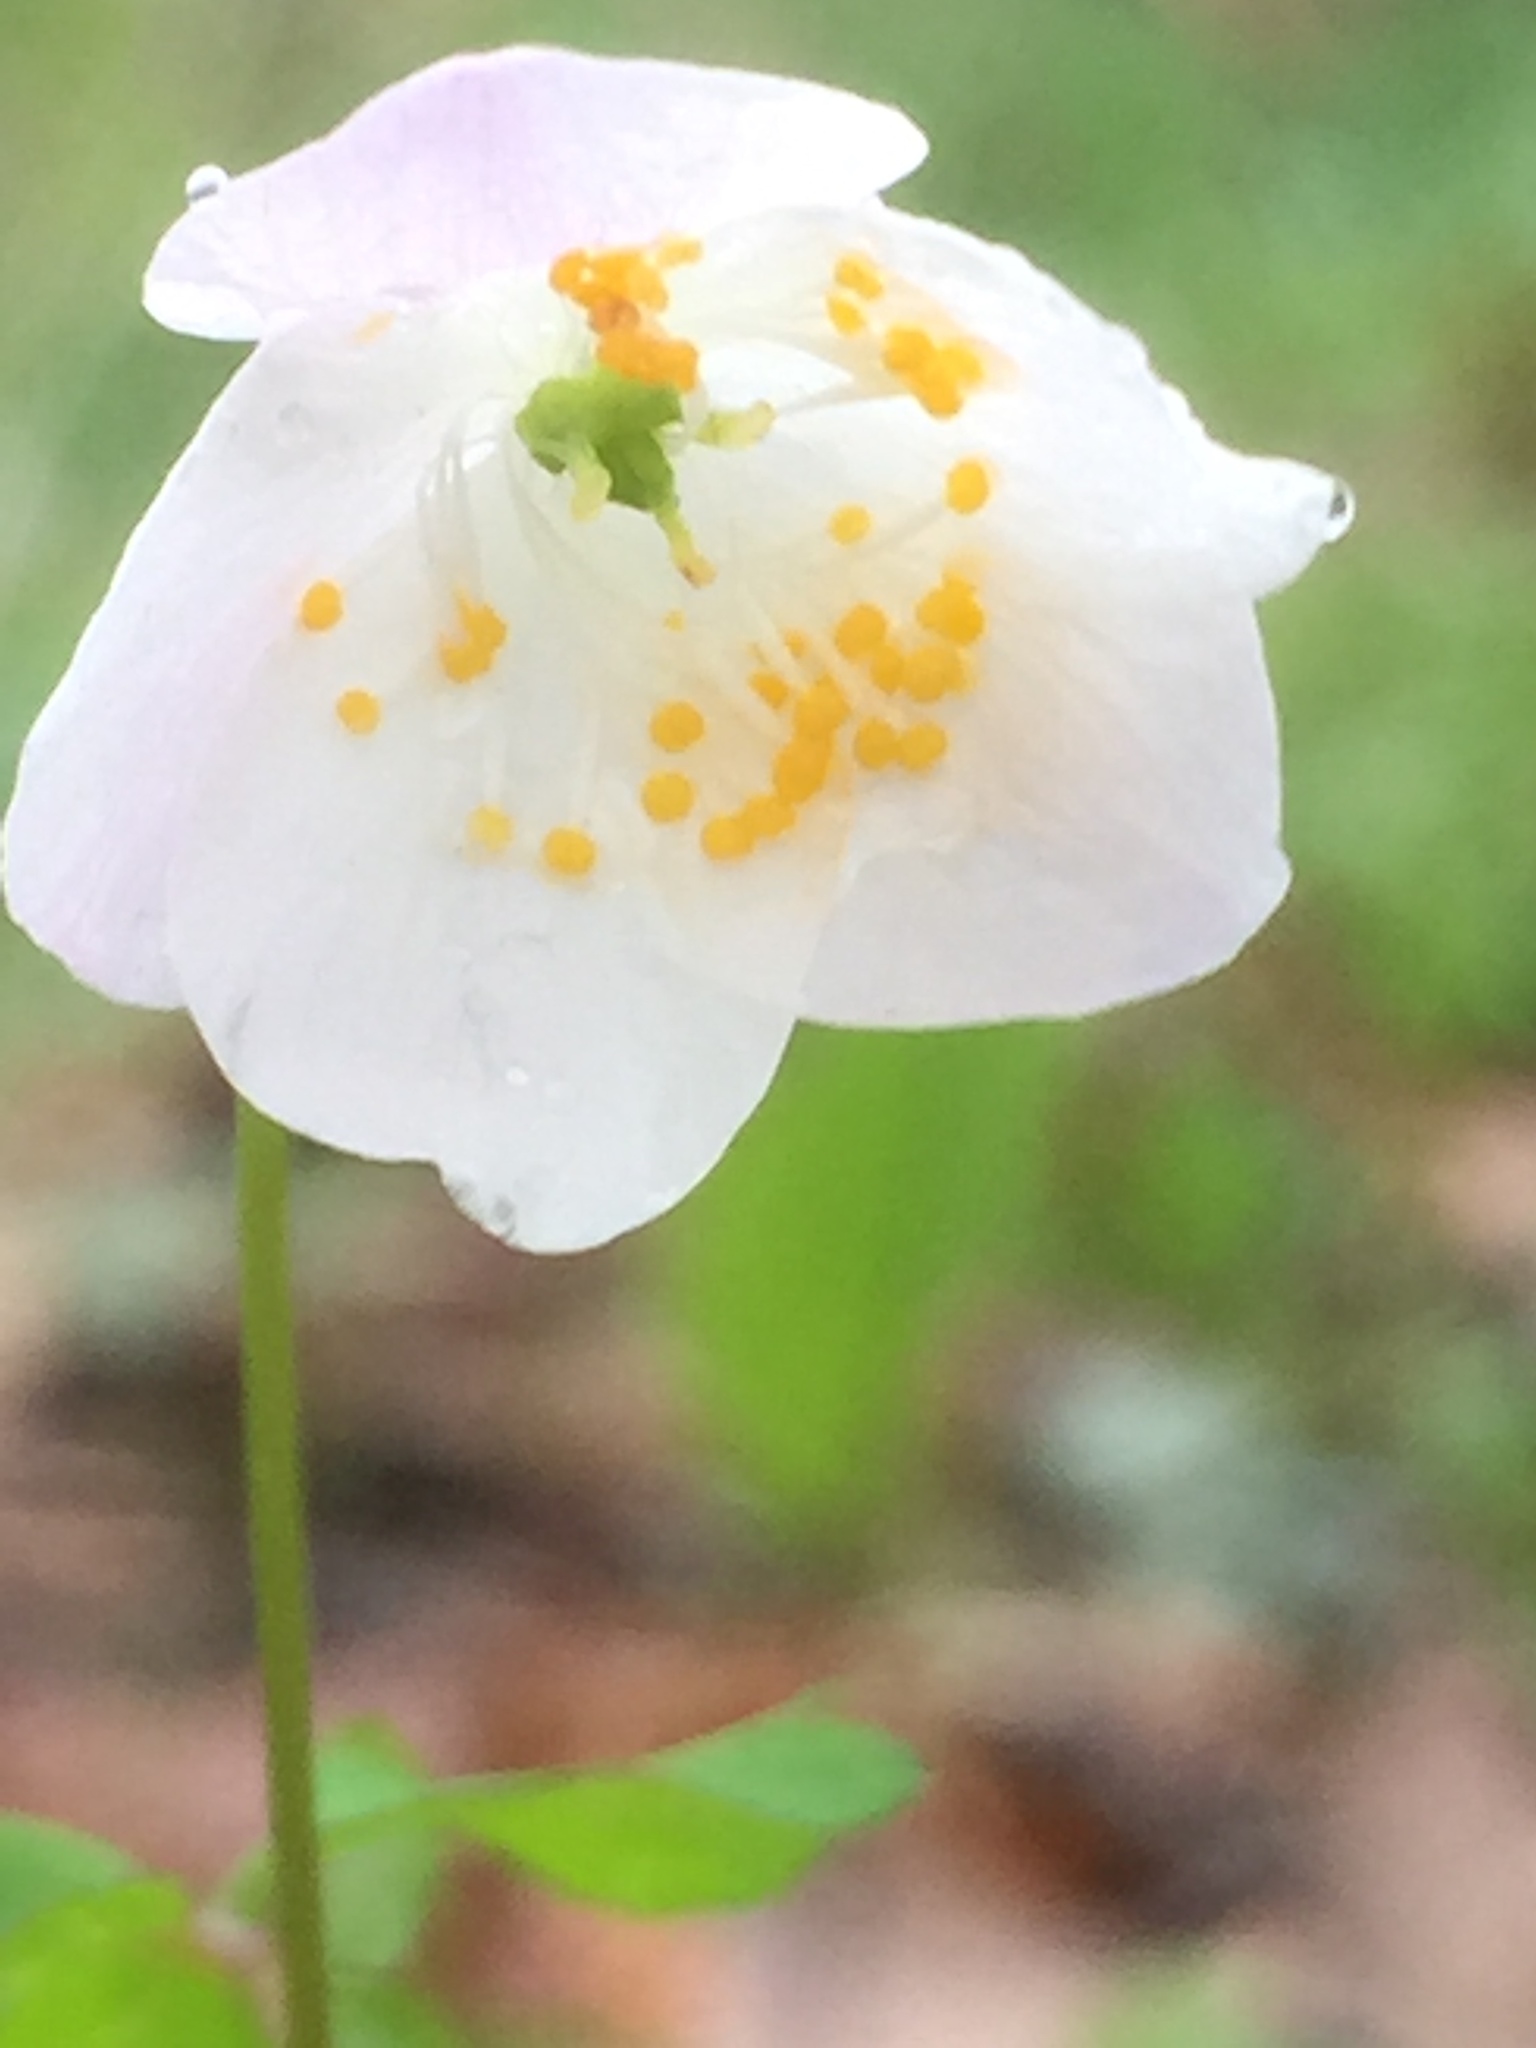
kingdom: Plantae
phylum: Tracheophyta
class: Magnoliopsida
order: Ranunculales
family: Ranunculaceae
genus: Enemion
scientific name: Enemion biternatum
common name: Eastern false rue-anemone
